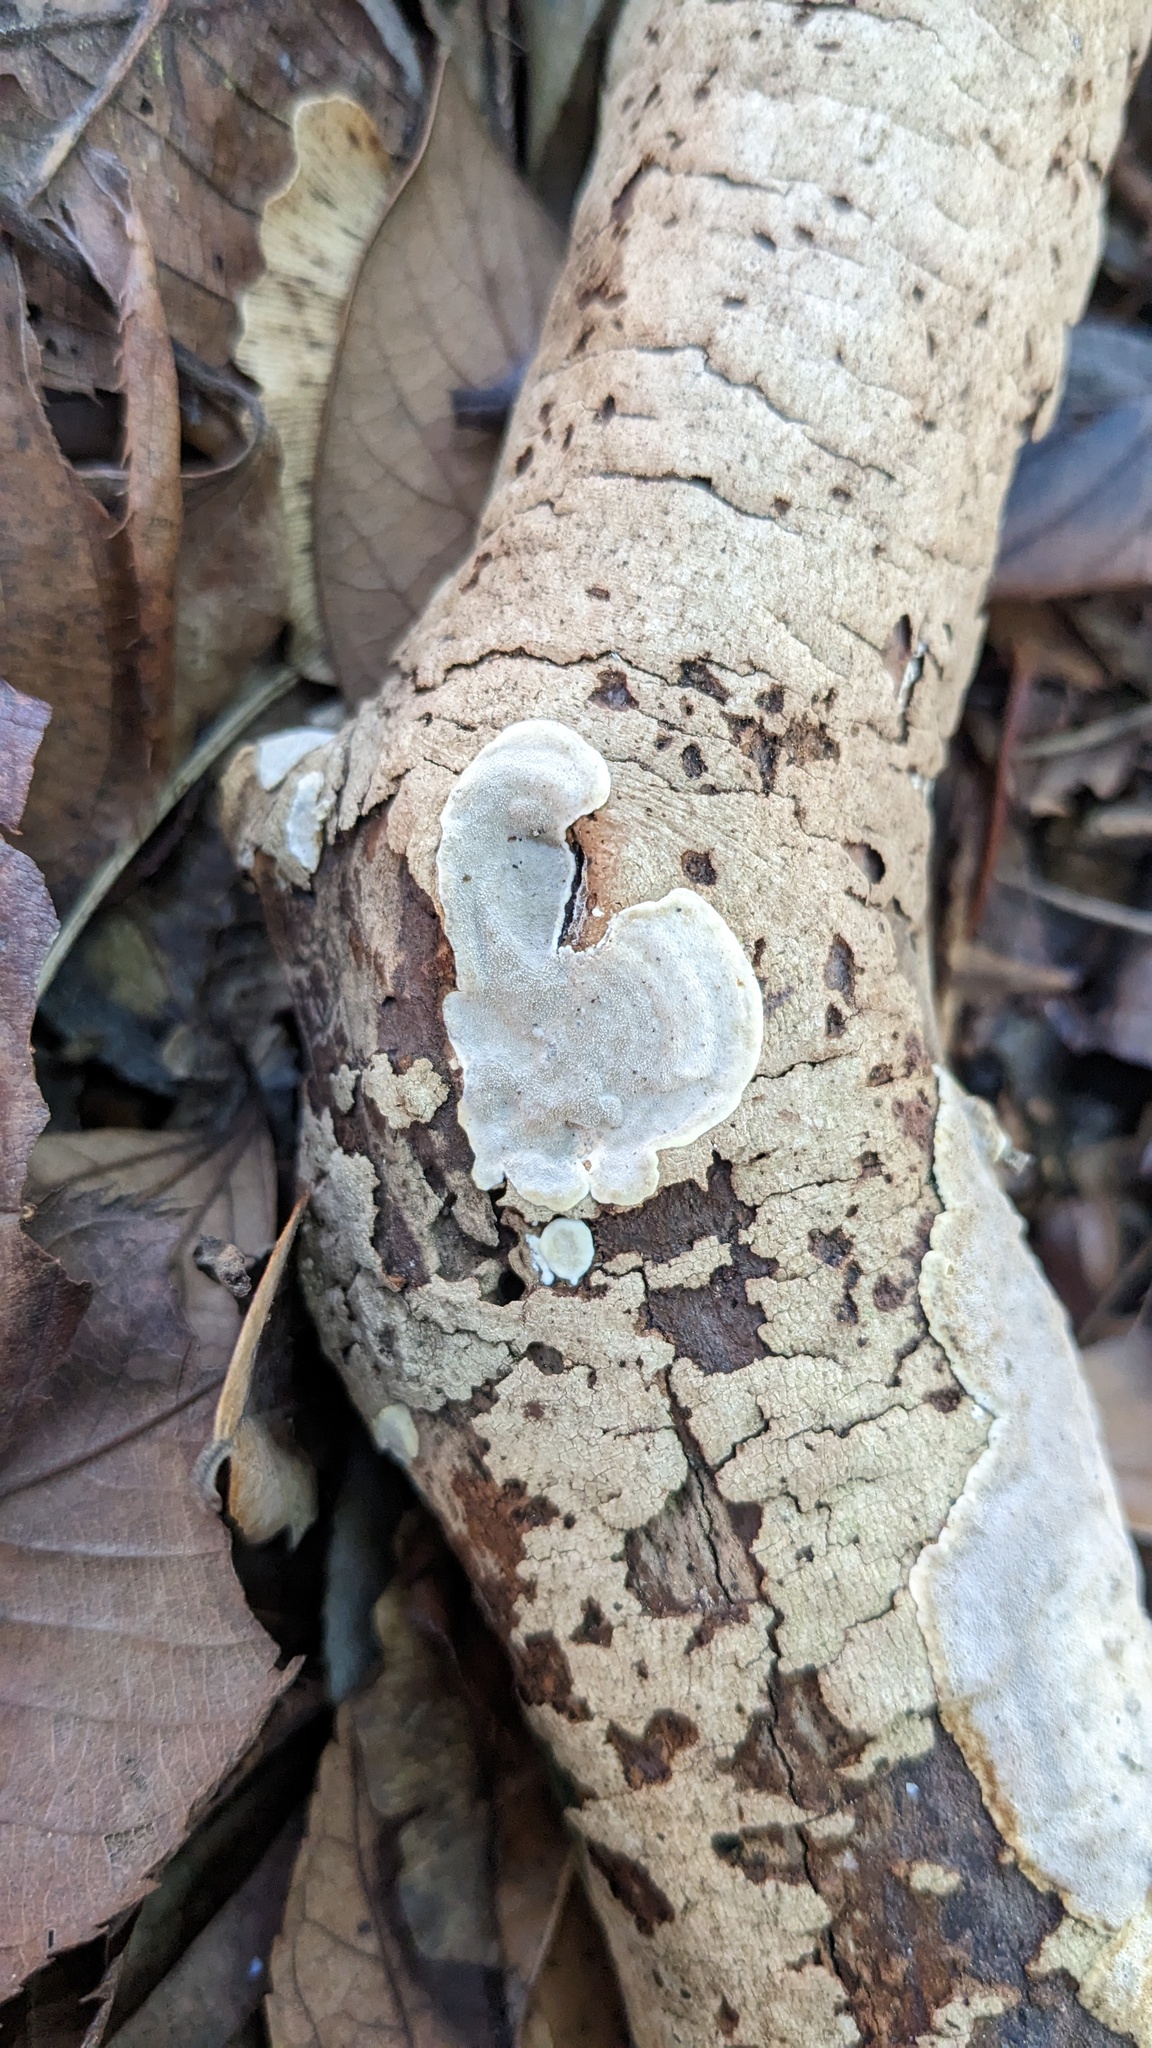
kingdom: Fungi
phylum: Basidiomycota
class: Agaricomycetes
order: Auriculariales
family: Auriculariaceae
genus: Heterochaete
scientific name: Heterochaete delicata
